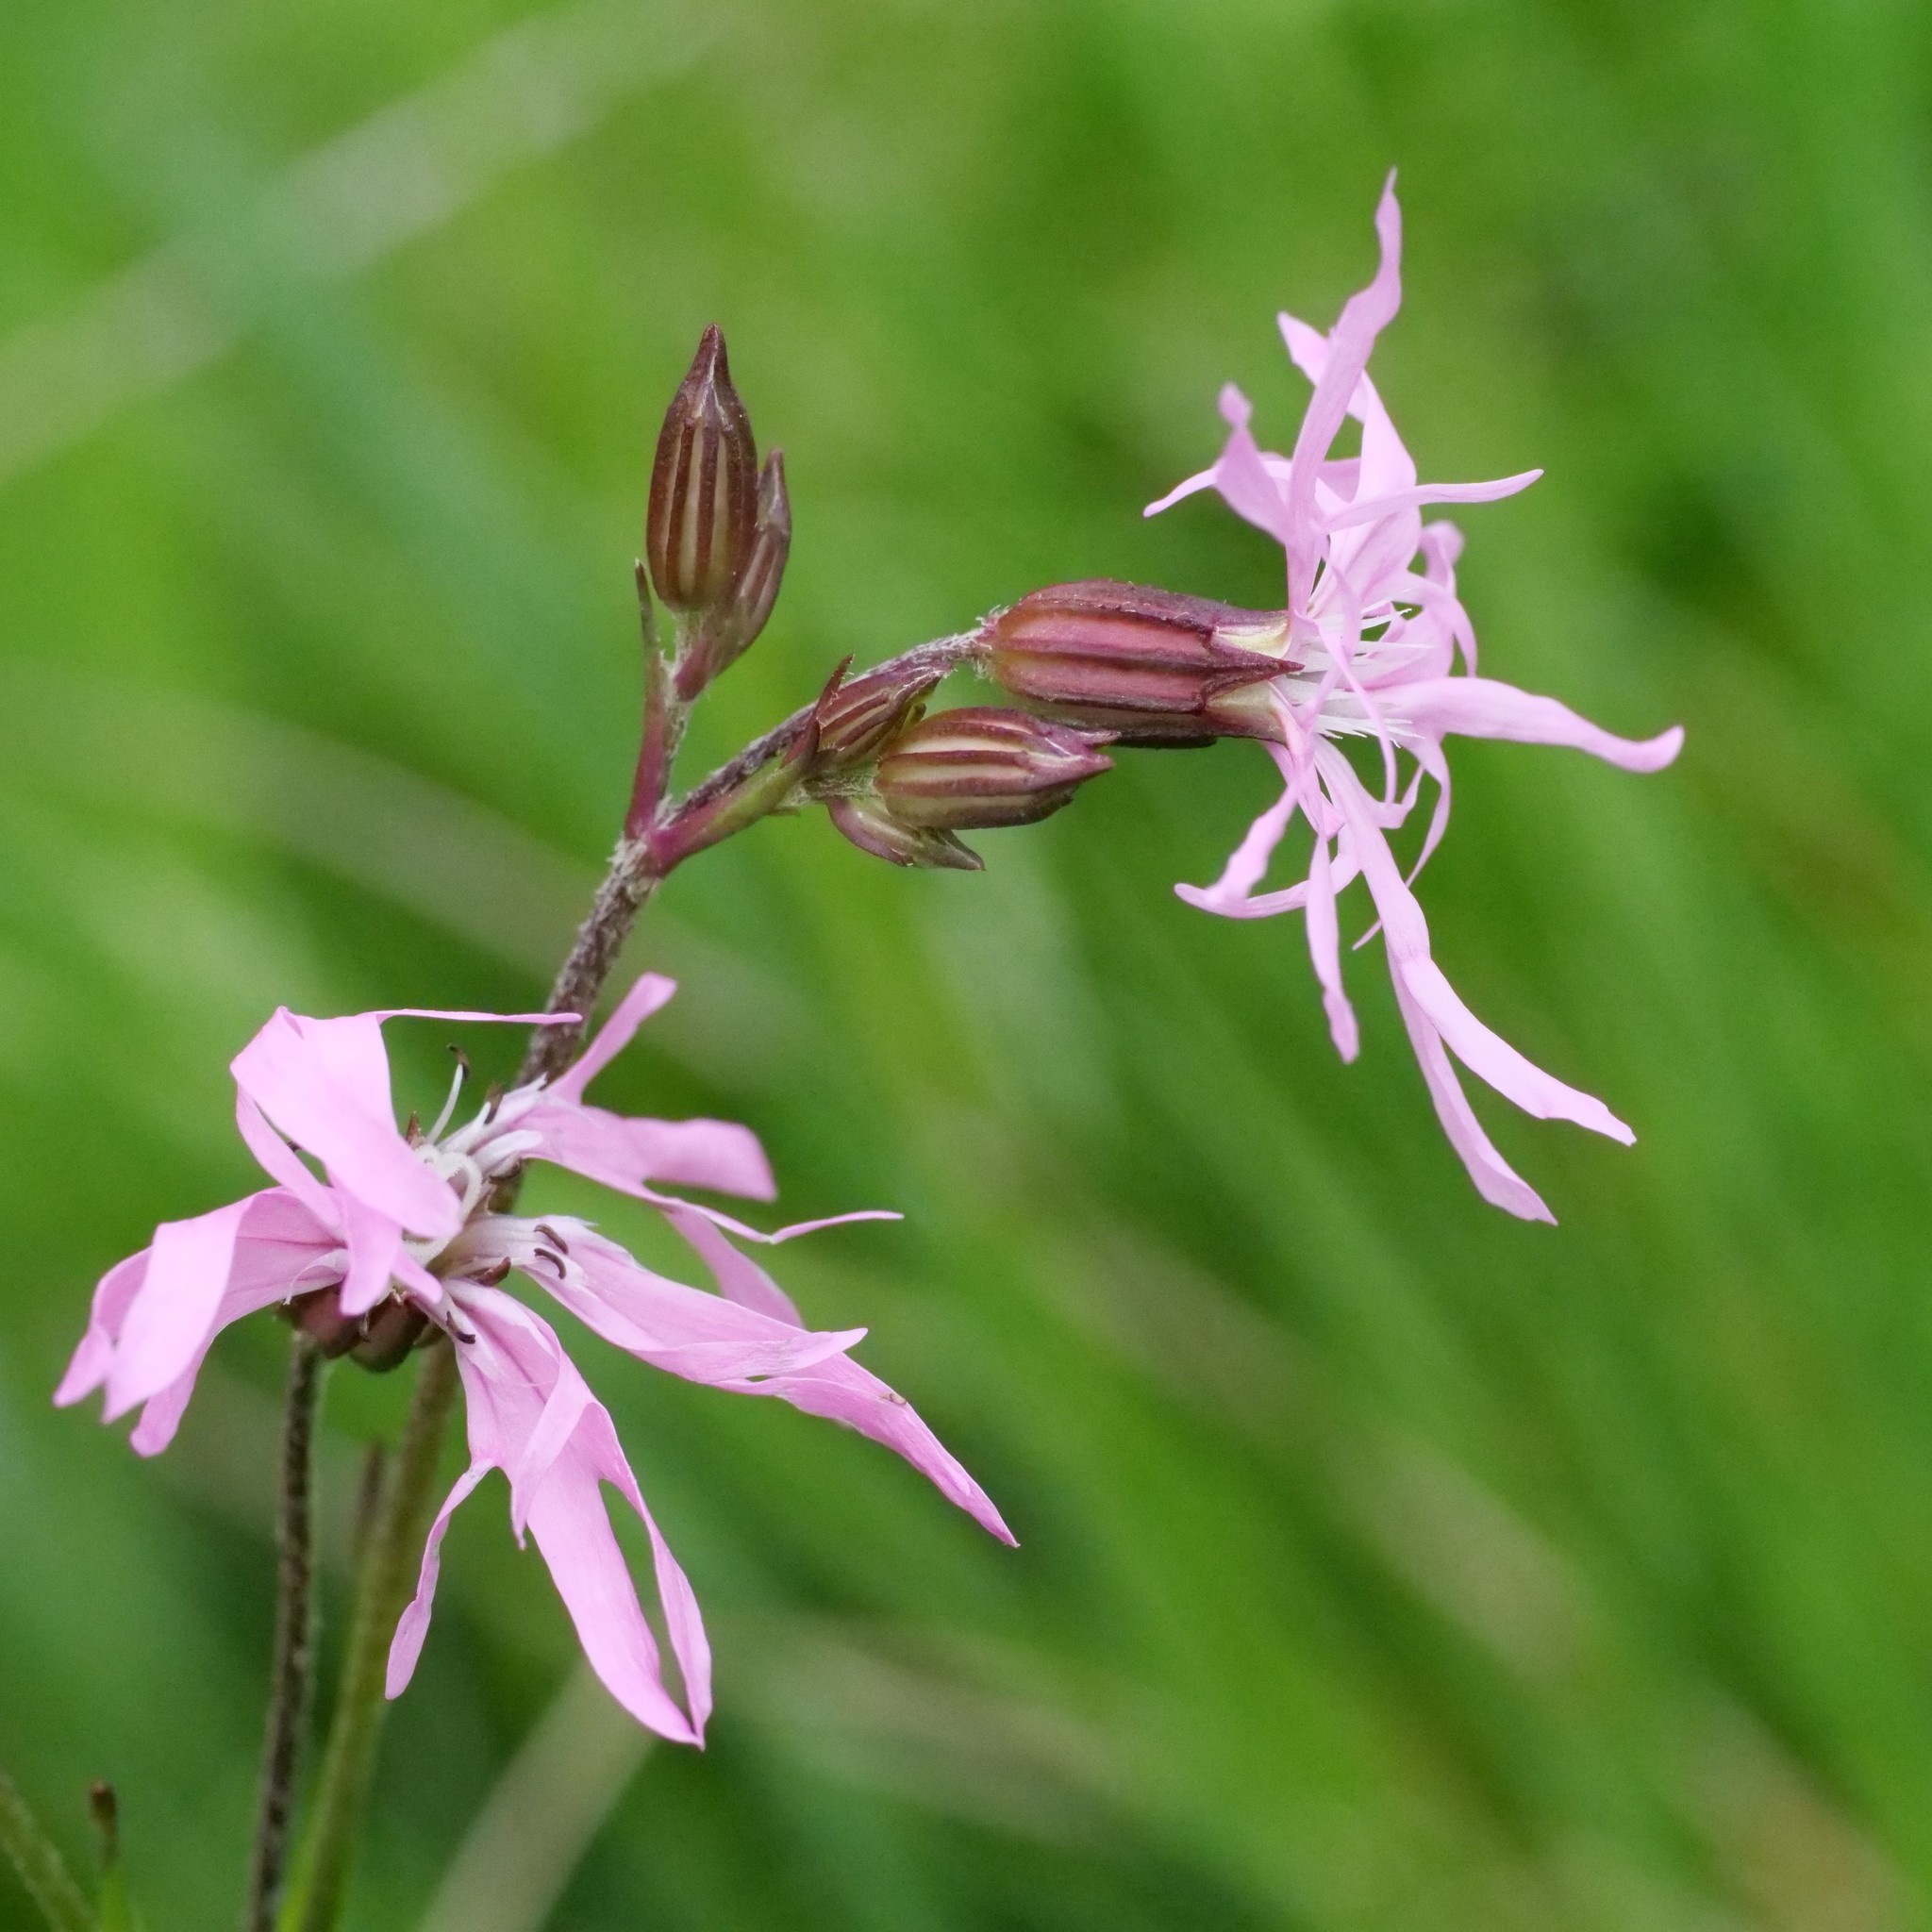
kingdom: Plantae
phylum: Tracheophyta
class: Magnoliopsida
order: Caryophyllales
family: Caryophyllaceae
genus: Silene
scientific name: Silene flos-cuculi
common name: Ragged-robin
